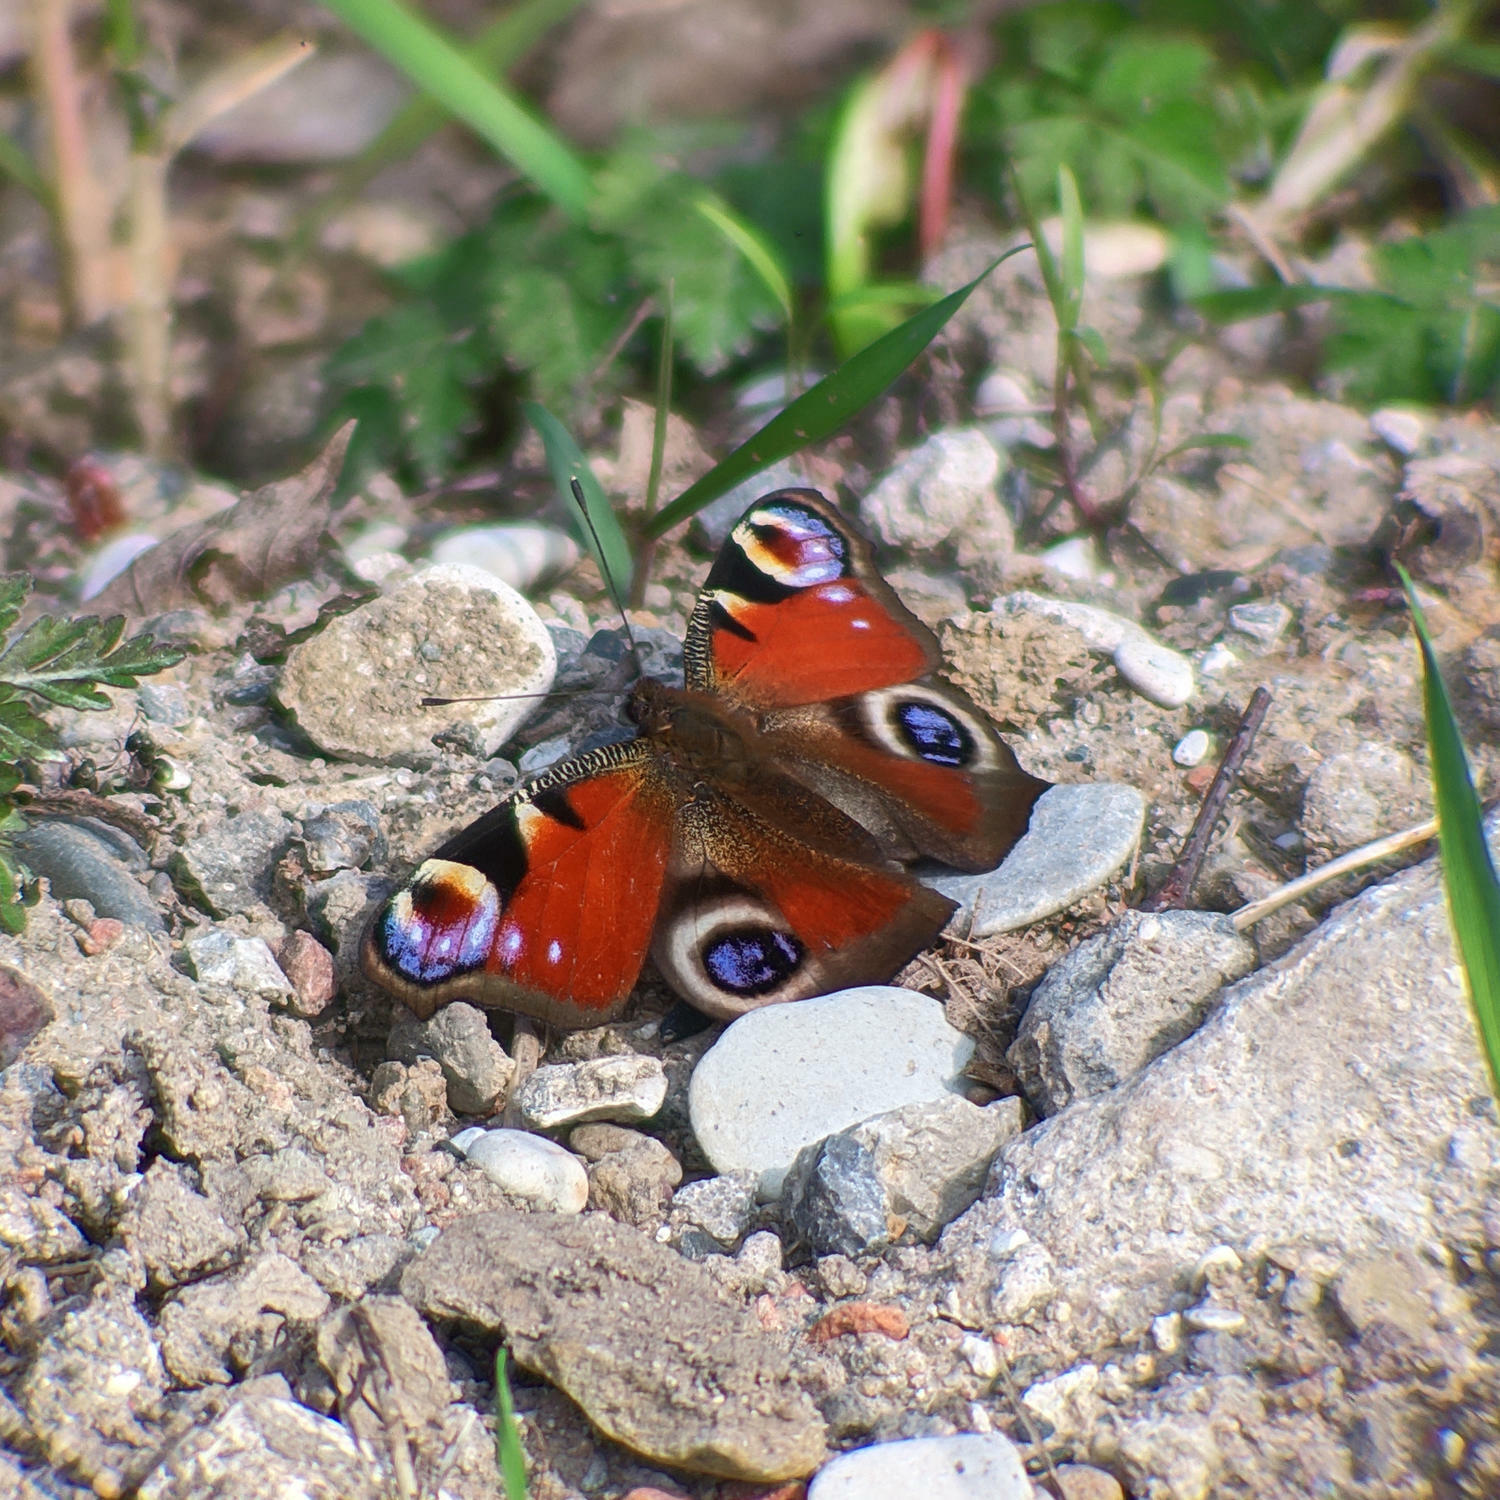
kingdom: Animalia
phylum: Arthropoda
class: Insecta
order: Lepidoptera
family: Nymphalidae
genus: Aglais
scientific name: Aglais io
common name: Peacock
